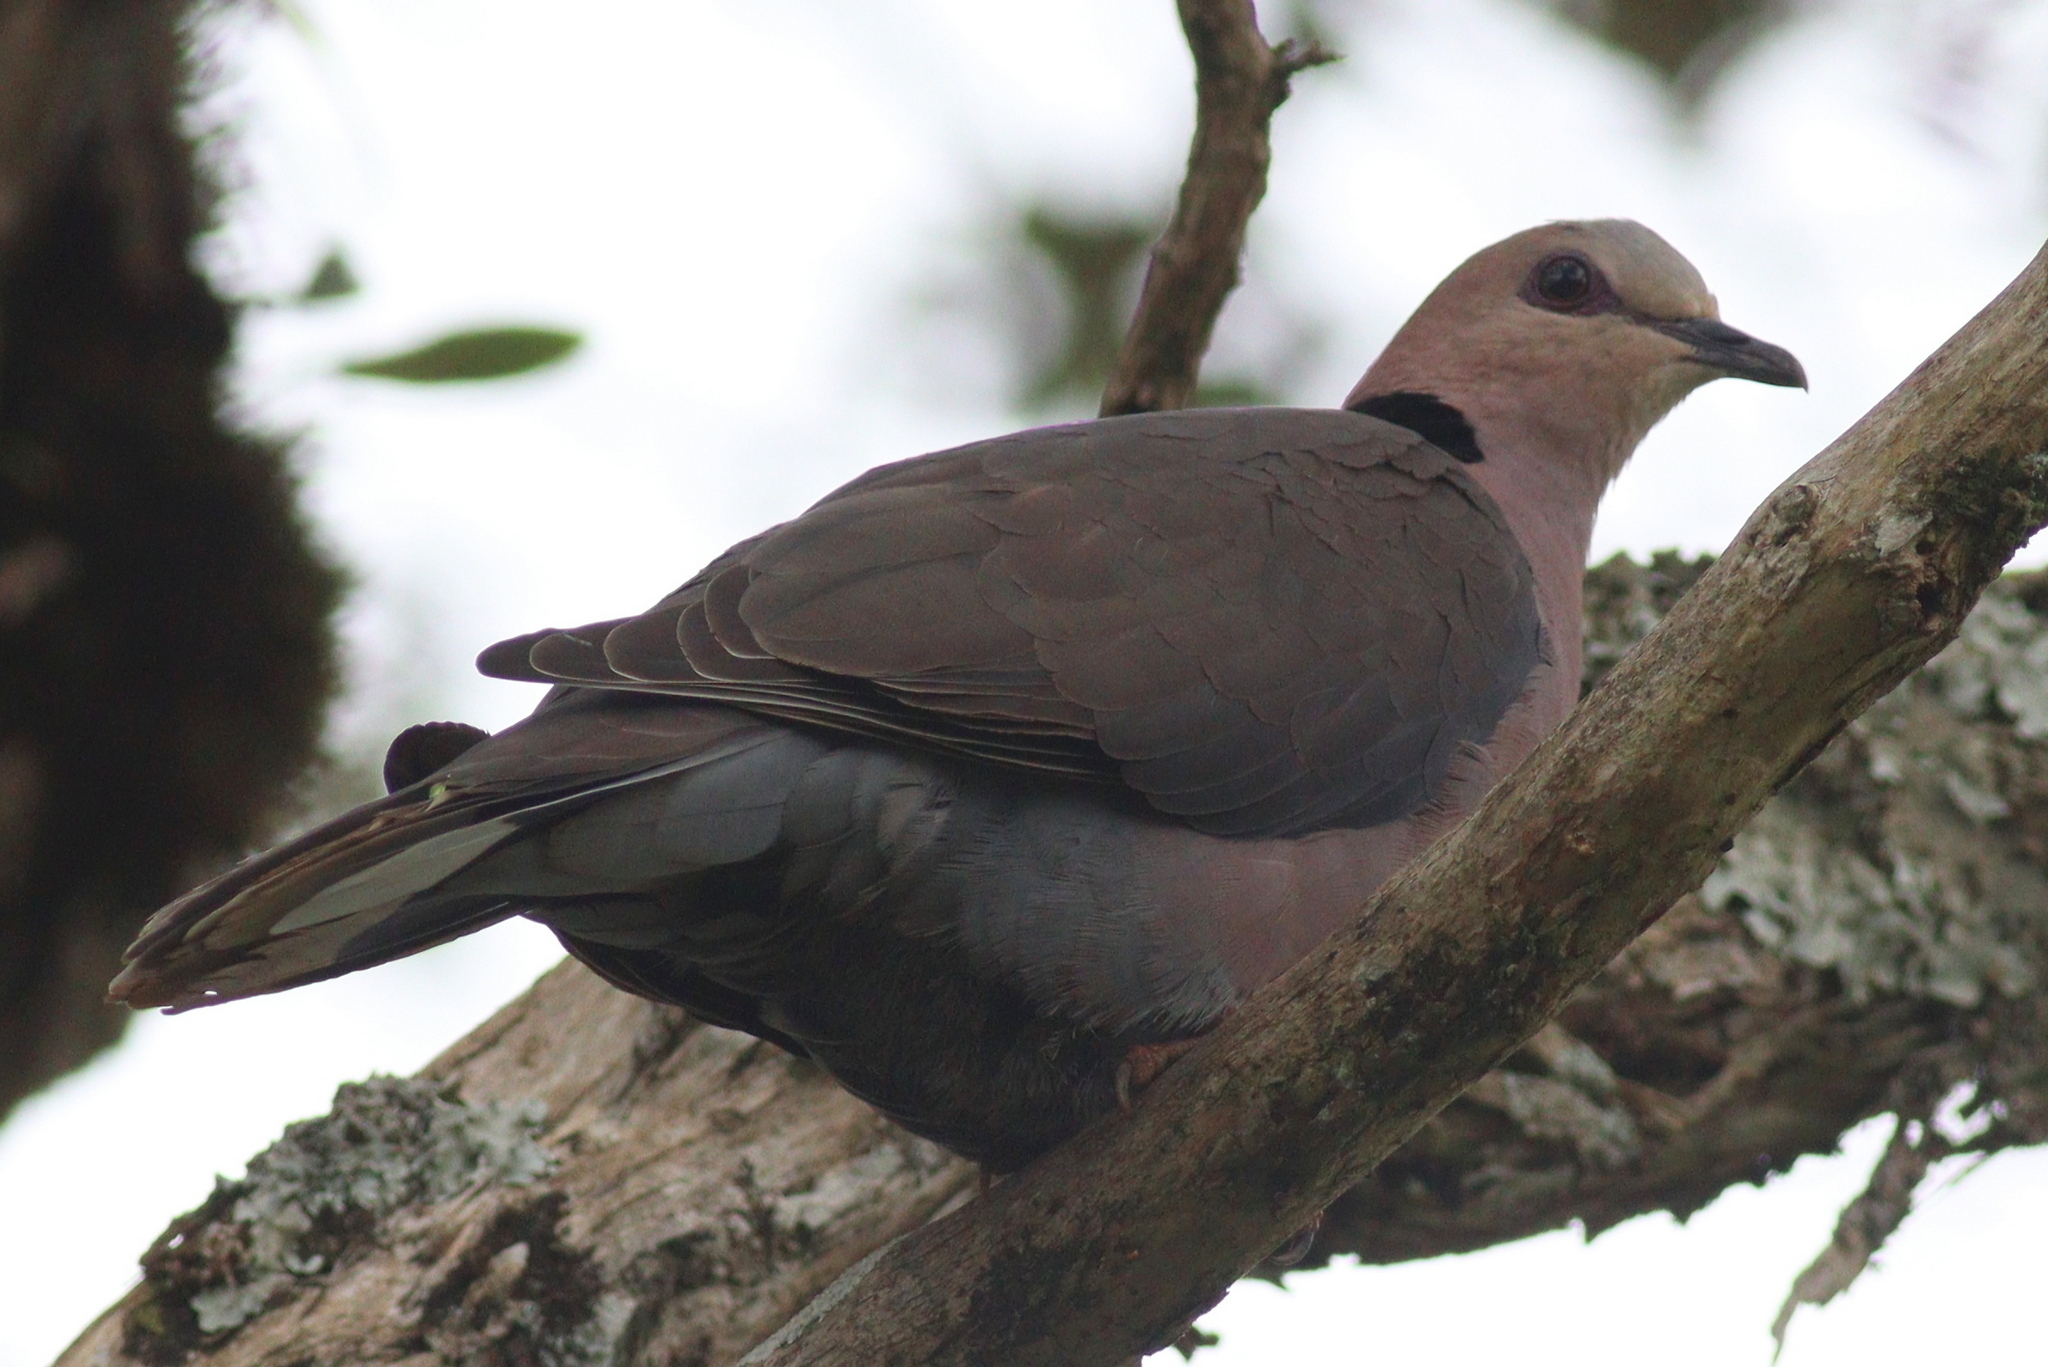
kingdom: Animalia
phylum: Chordata
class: Aves
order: Columbiformes
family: Columbidae
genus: Streptopelia
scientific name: Streptopelia semitorquata
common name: Red-eyed dove
